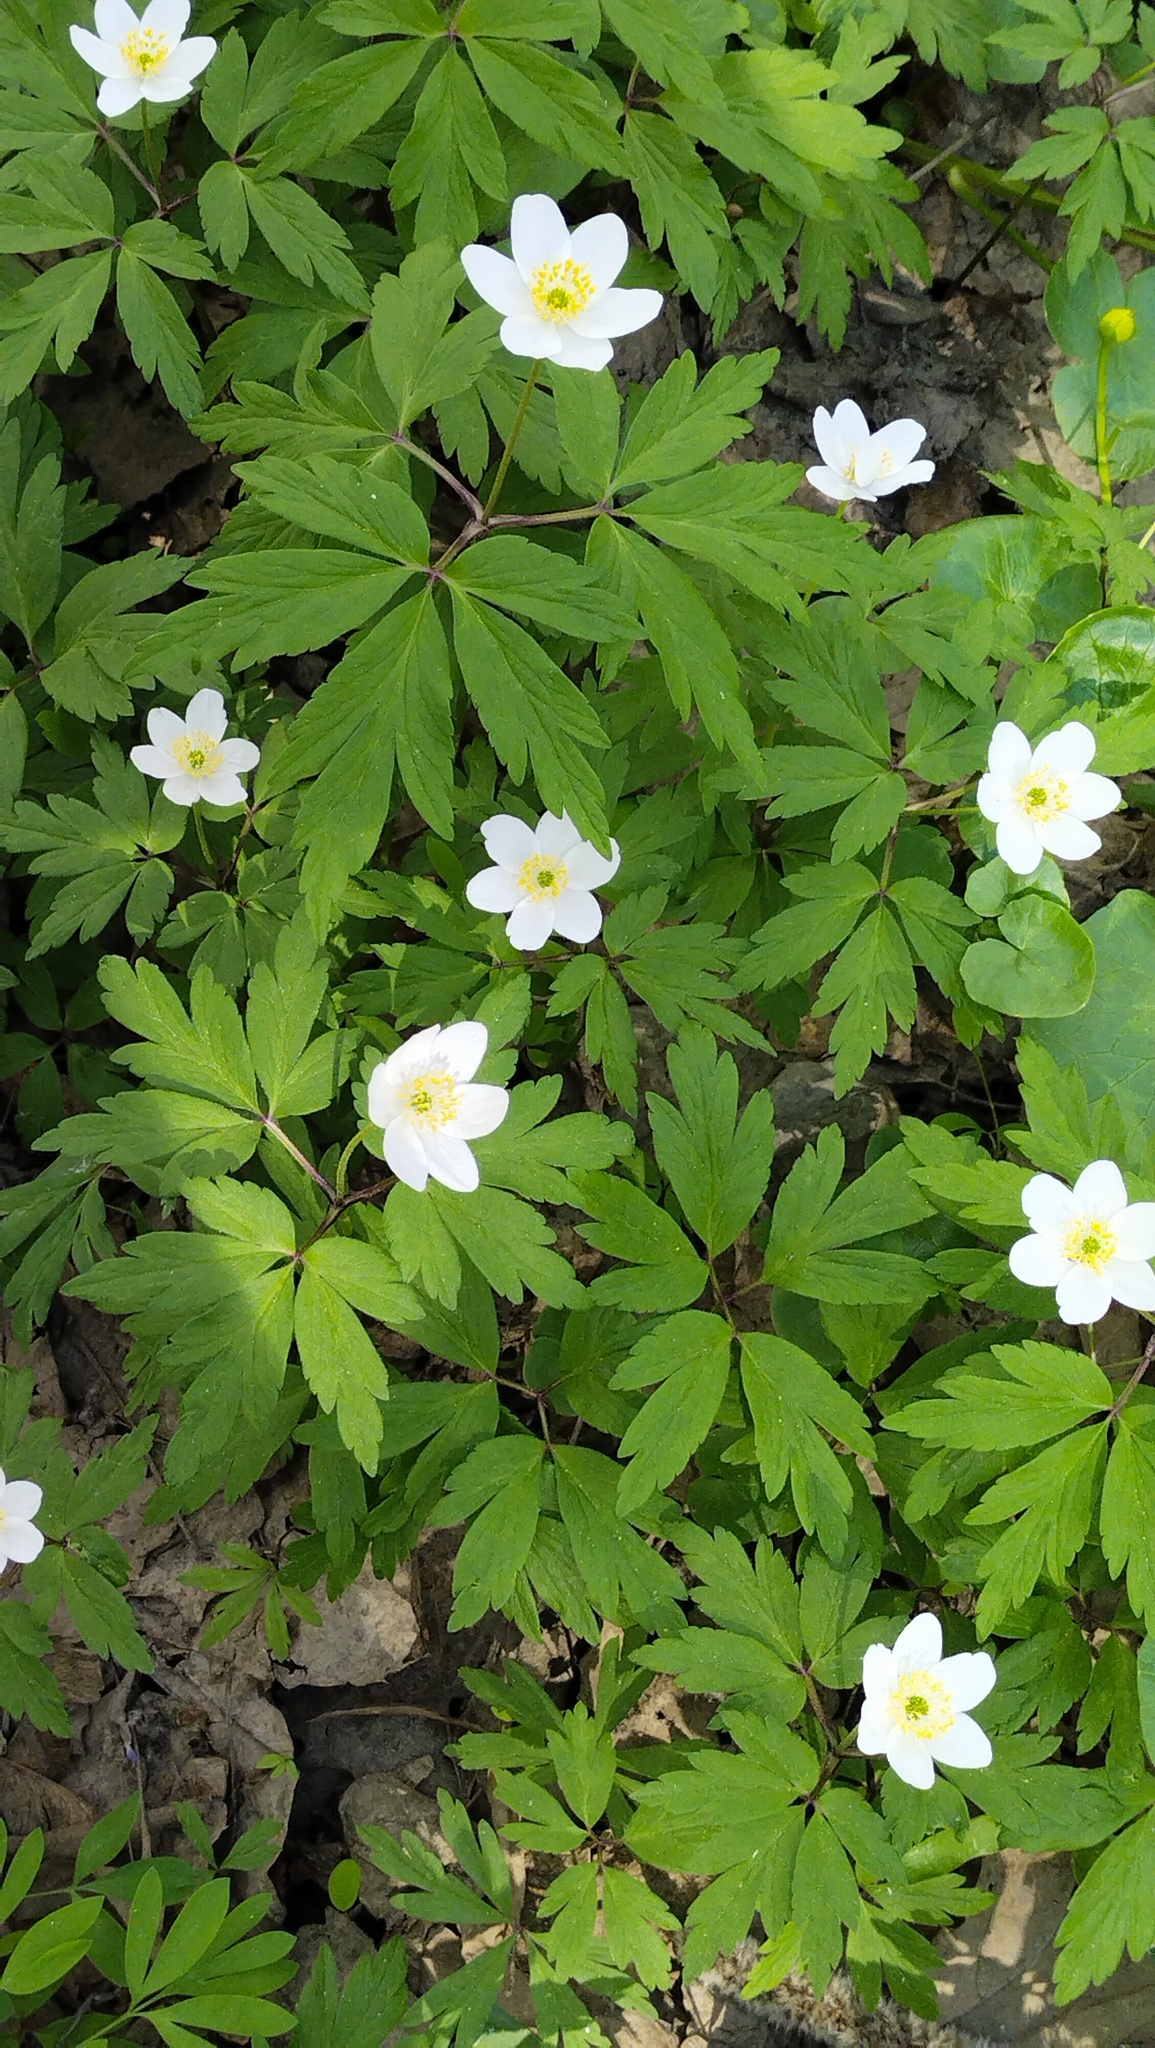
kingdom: Plantae
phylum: Tracheophyta
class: Magnoliopsida
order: Ranunculales
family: Ranunculaceae
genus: Anemone
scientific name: Anemone nemorosa
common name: Wood anemone
